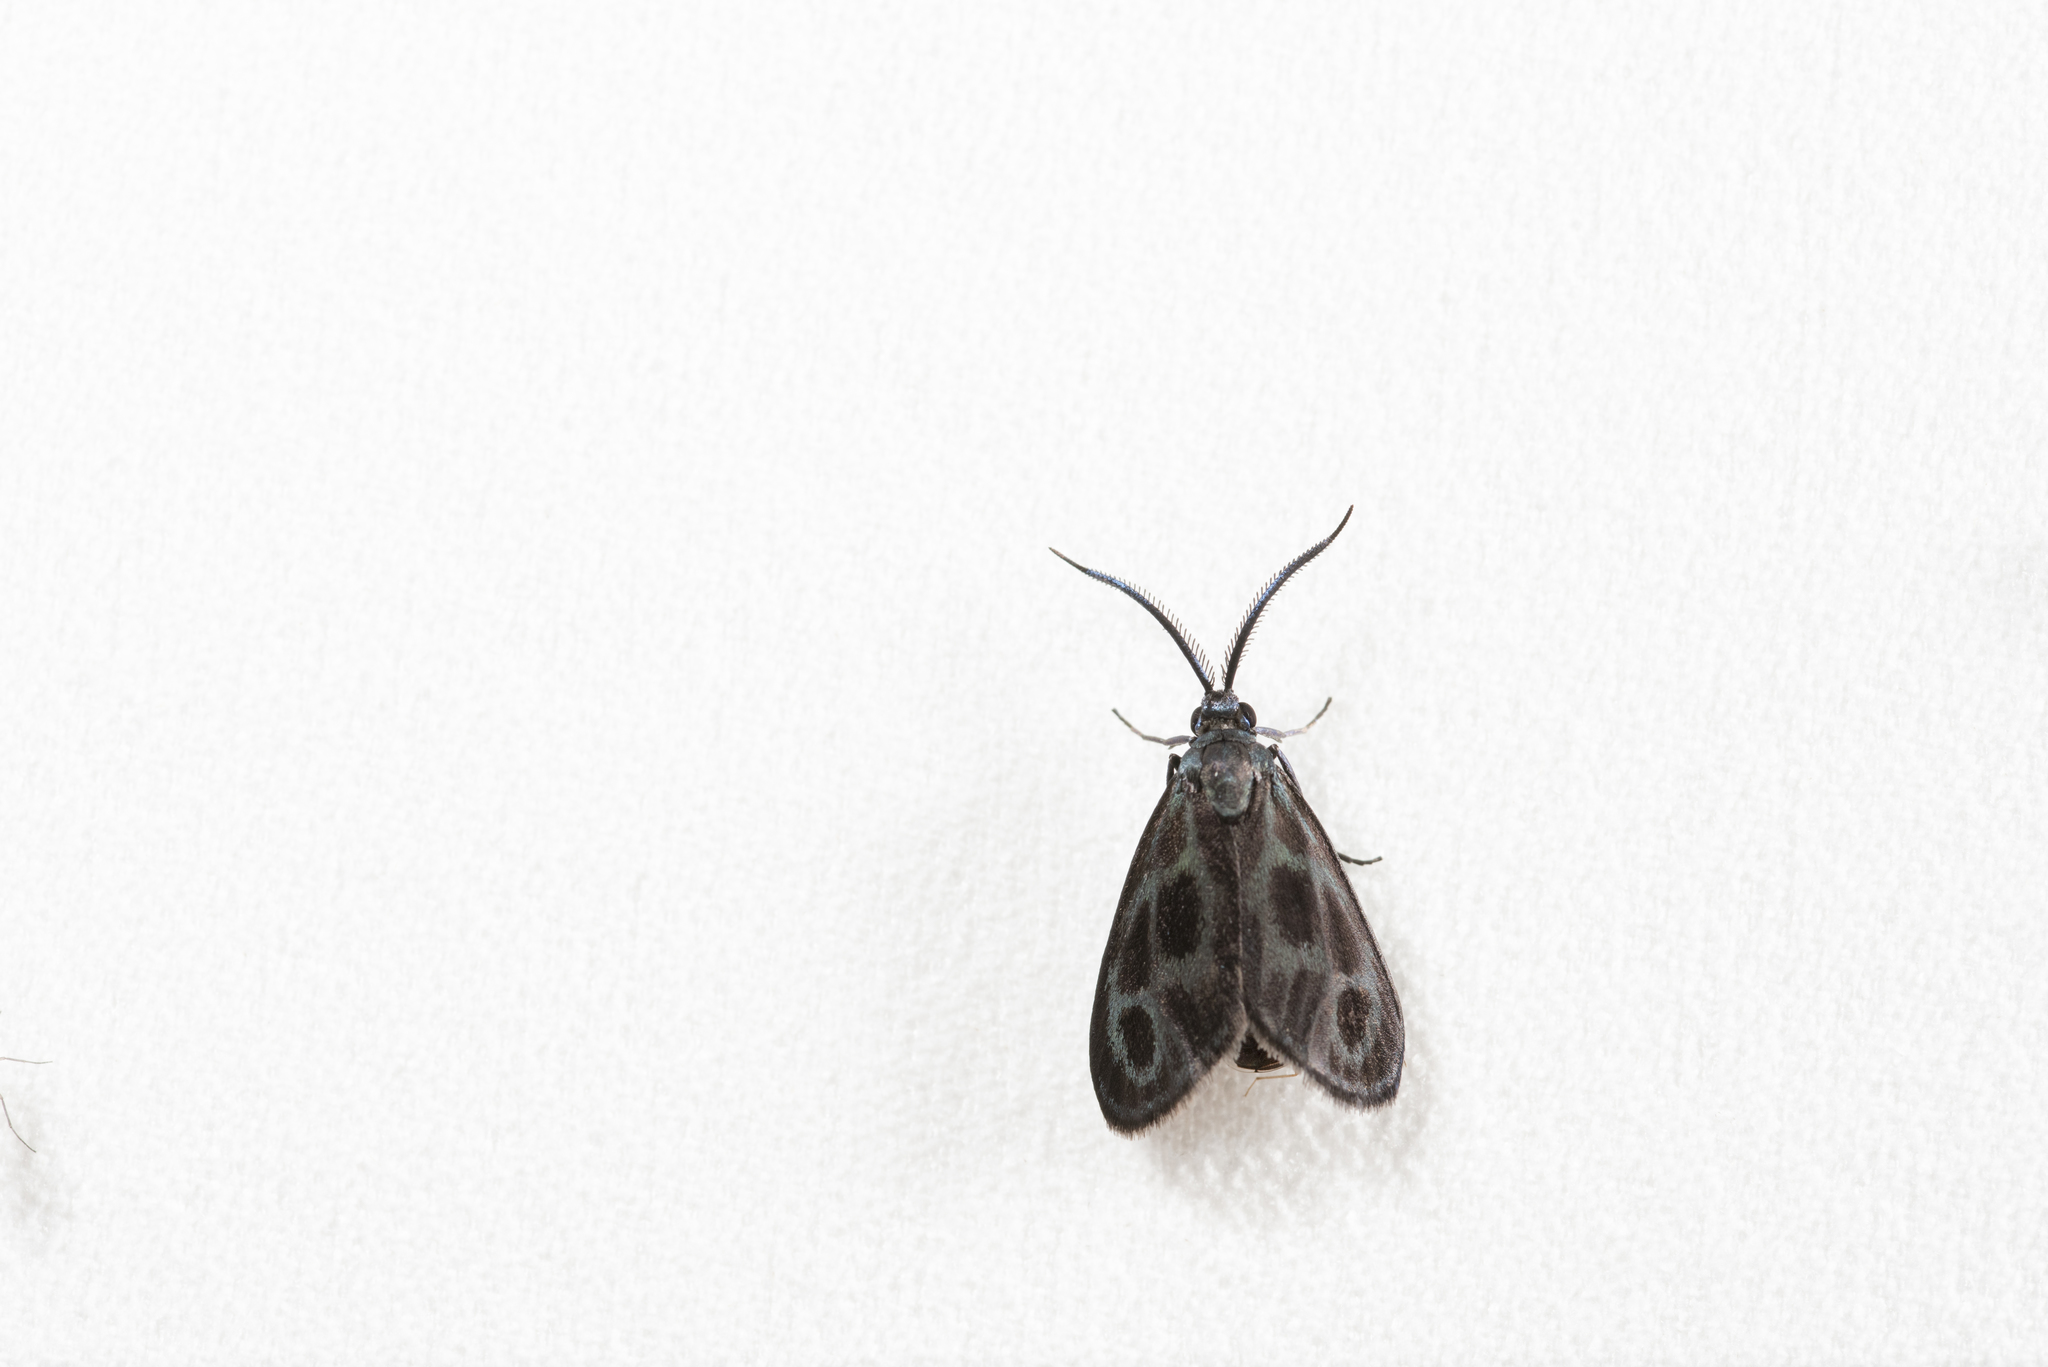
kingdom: Animalia
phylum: Arthropoda
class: Insecta
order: Lepidoptera
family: Zygaenidae
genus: Clelea
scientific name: Clelea simplicior
